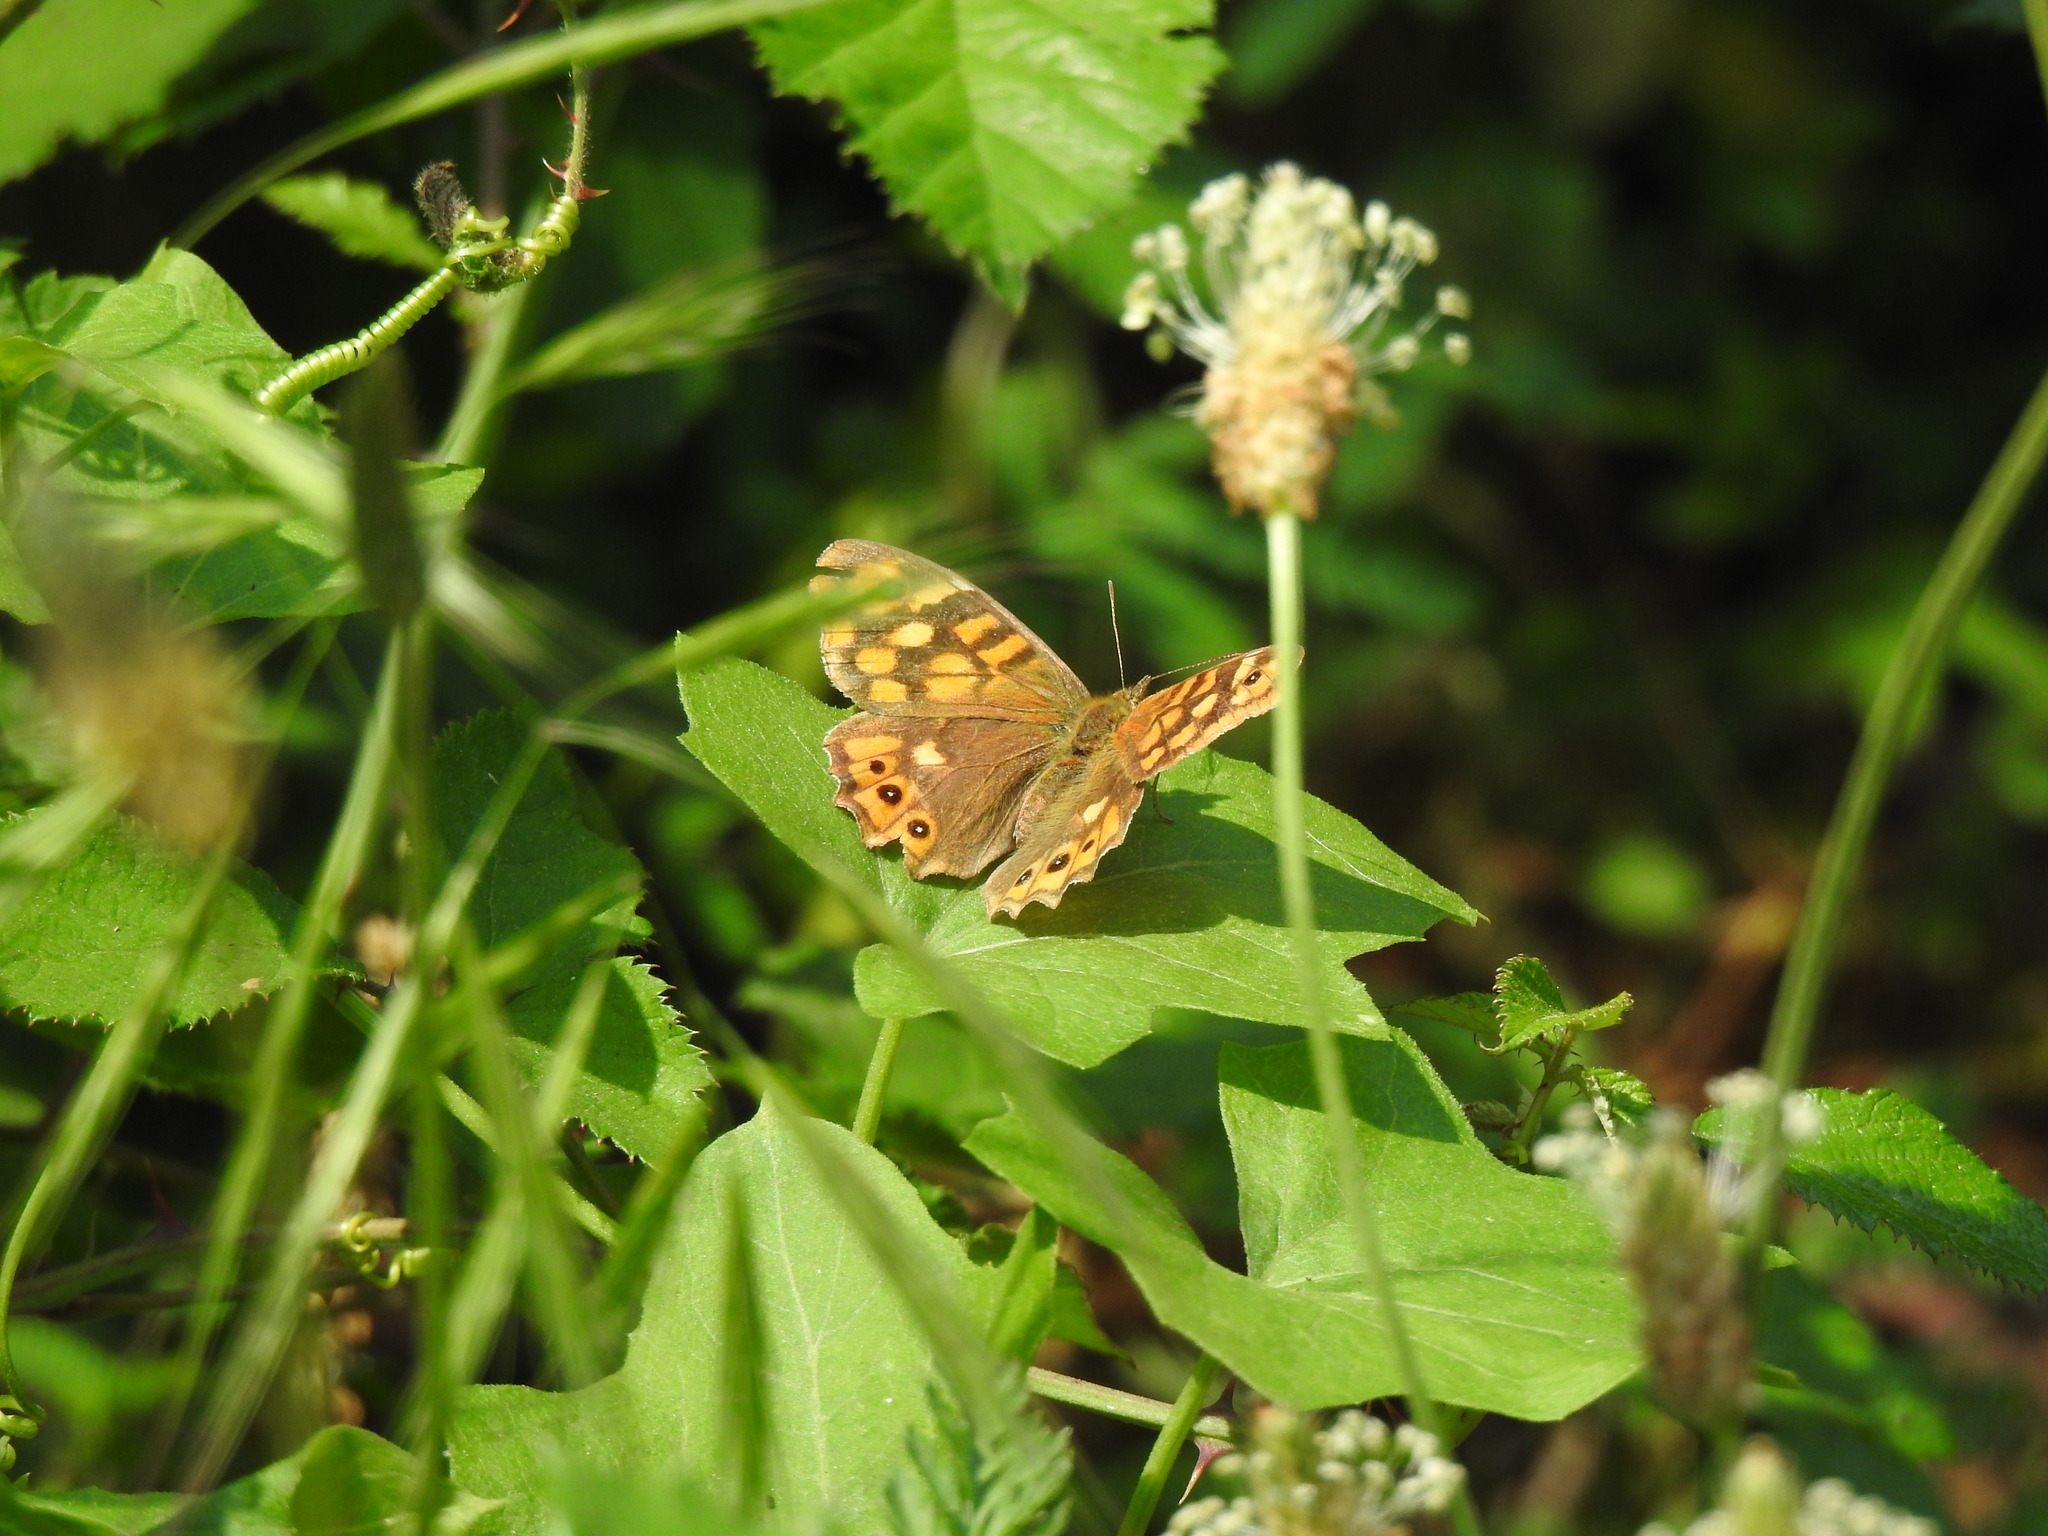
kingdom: Animalia
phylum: Arthropoda
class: Insecta
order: Lepidoptera
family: Nymphalidae
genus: Pararge
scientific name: Pararge aegeria
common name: Speckled wood
